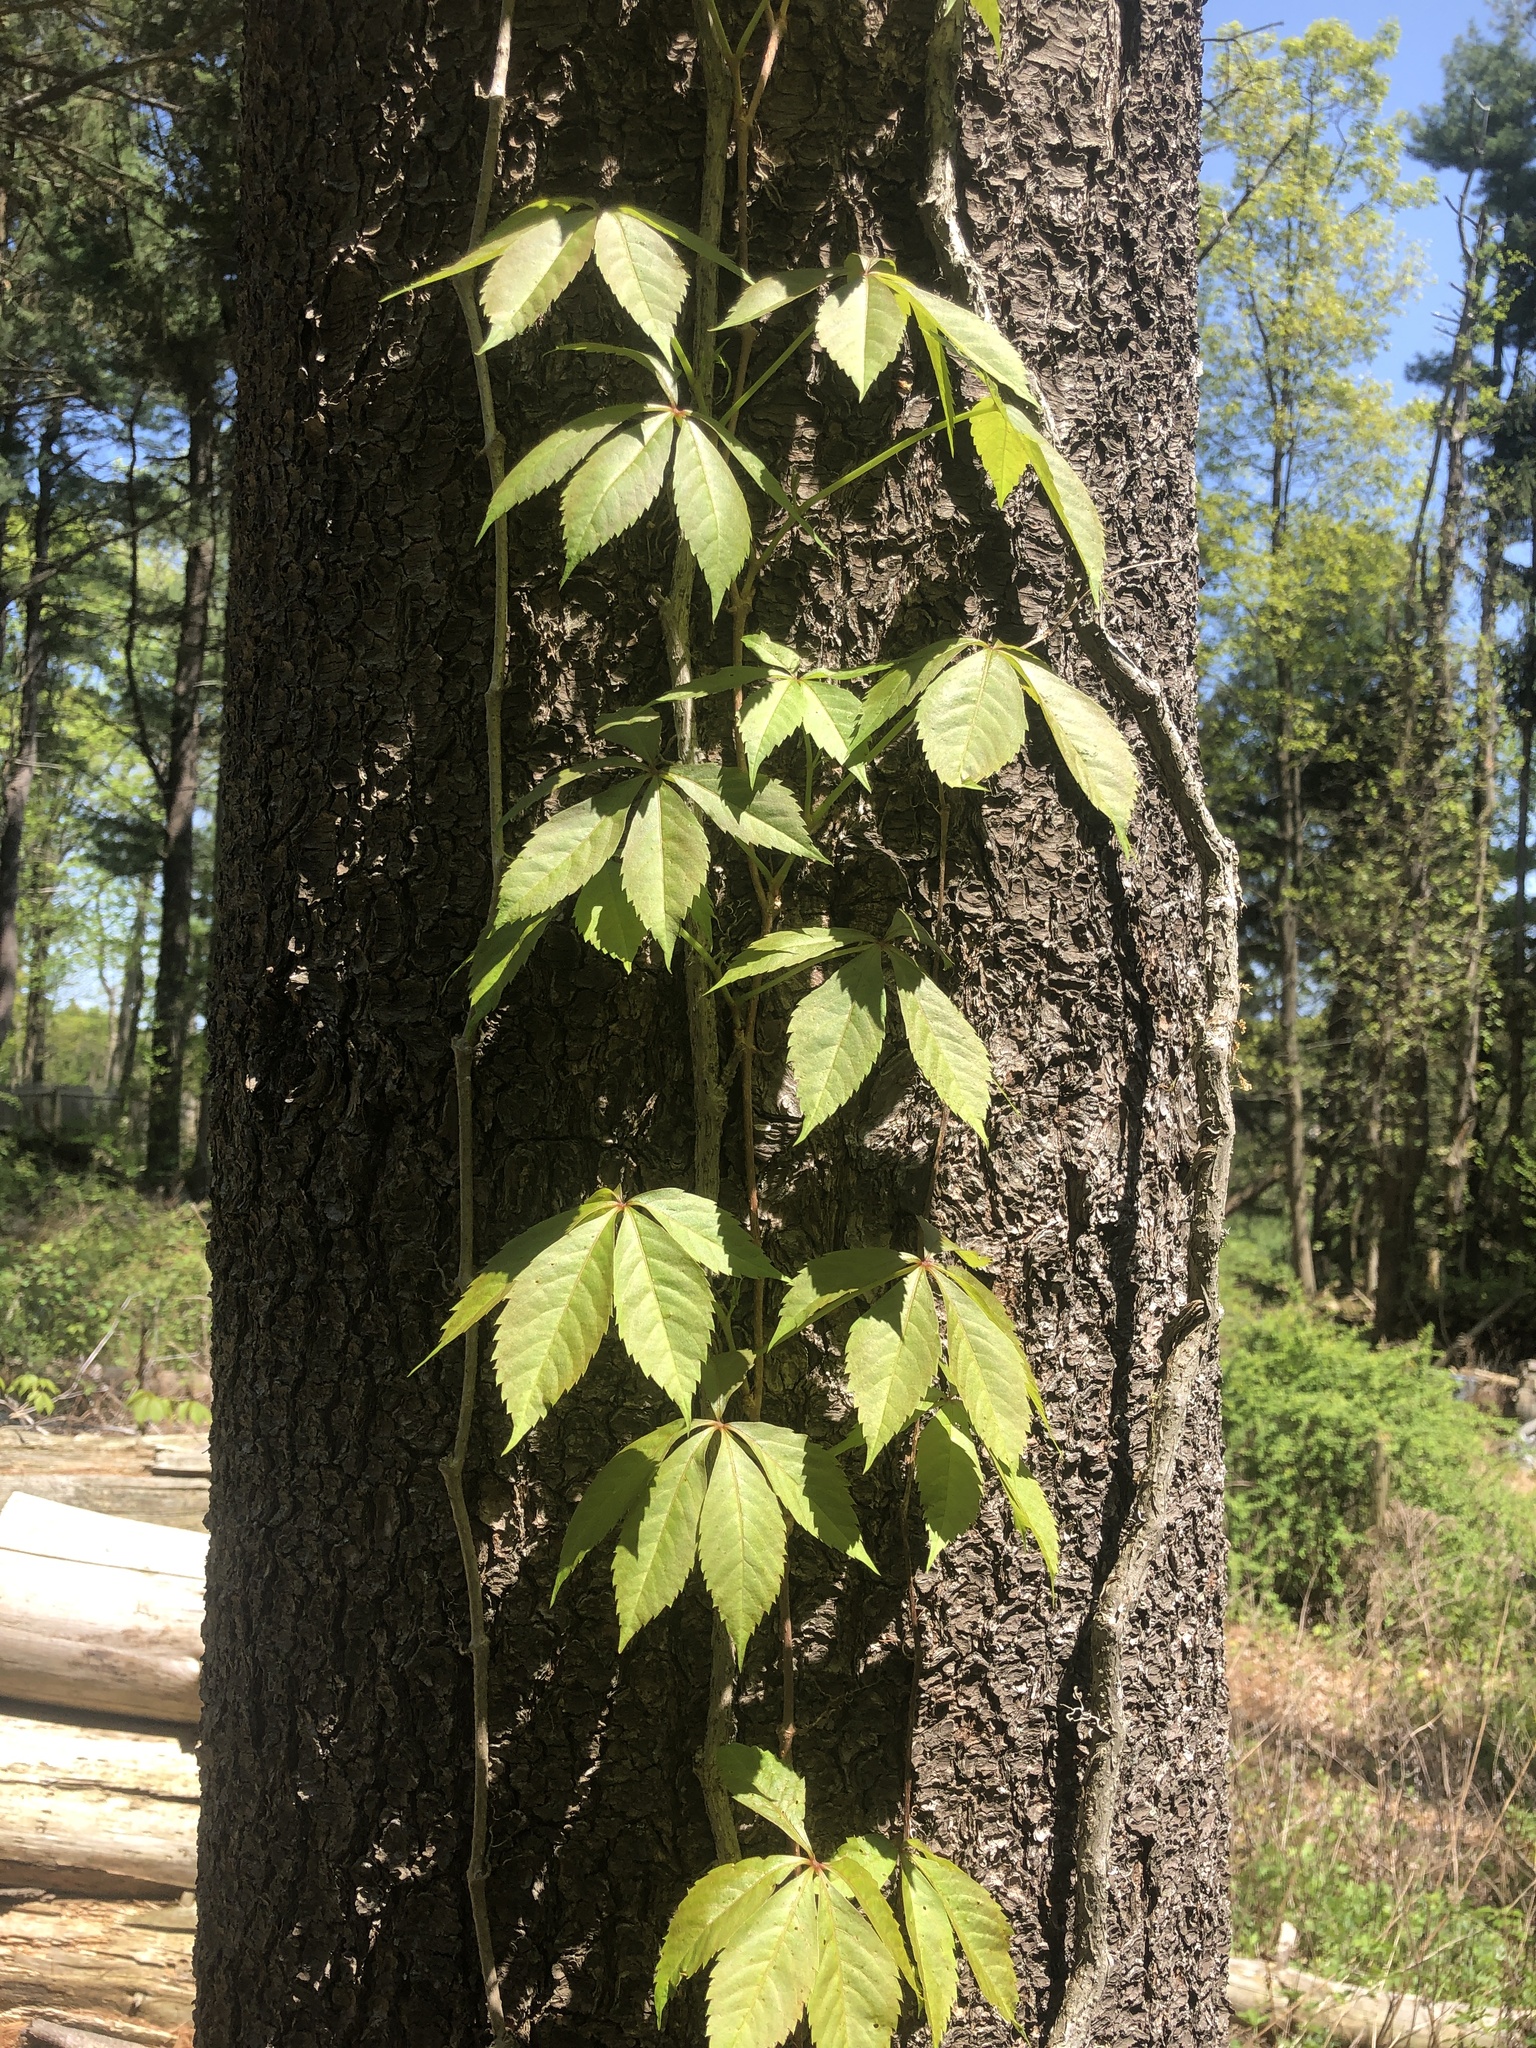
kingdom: Plantae
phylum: Tracheophyta
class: Magnoliopsida
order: Vitales
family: Vitaceae
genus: Parthenocissus
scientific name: Parthenocissus quinquefolia
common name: Virginia-creeper
